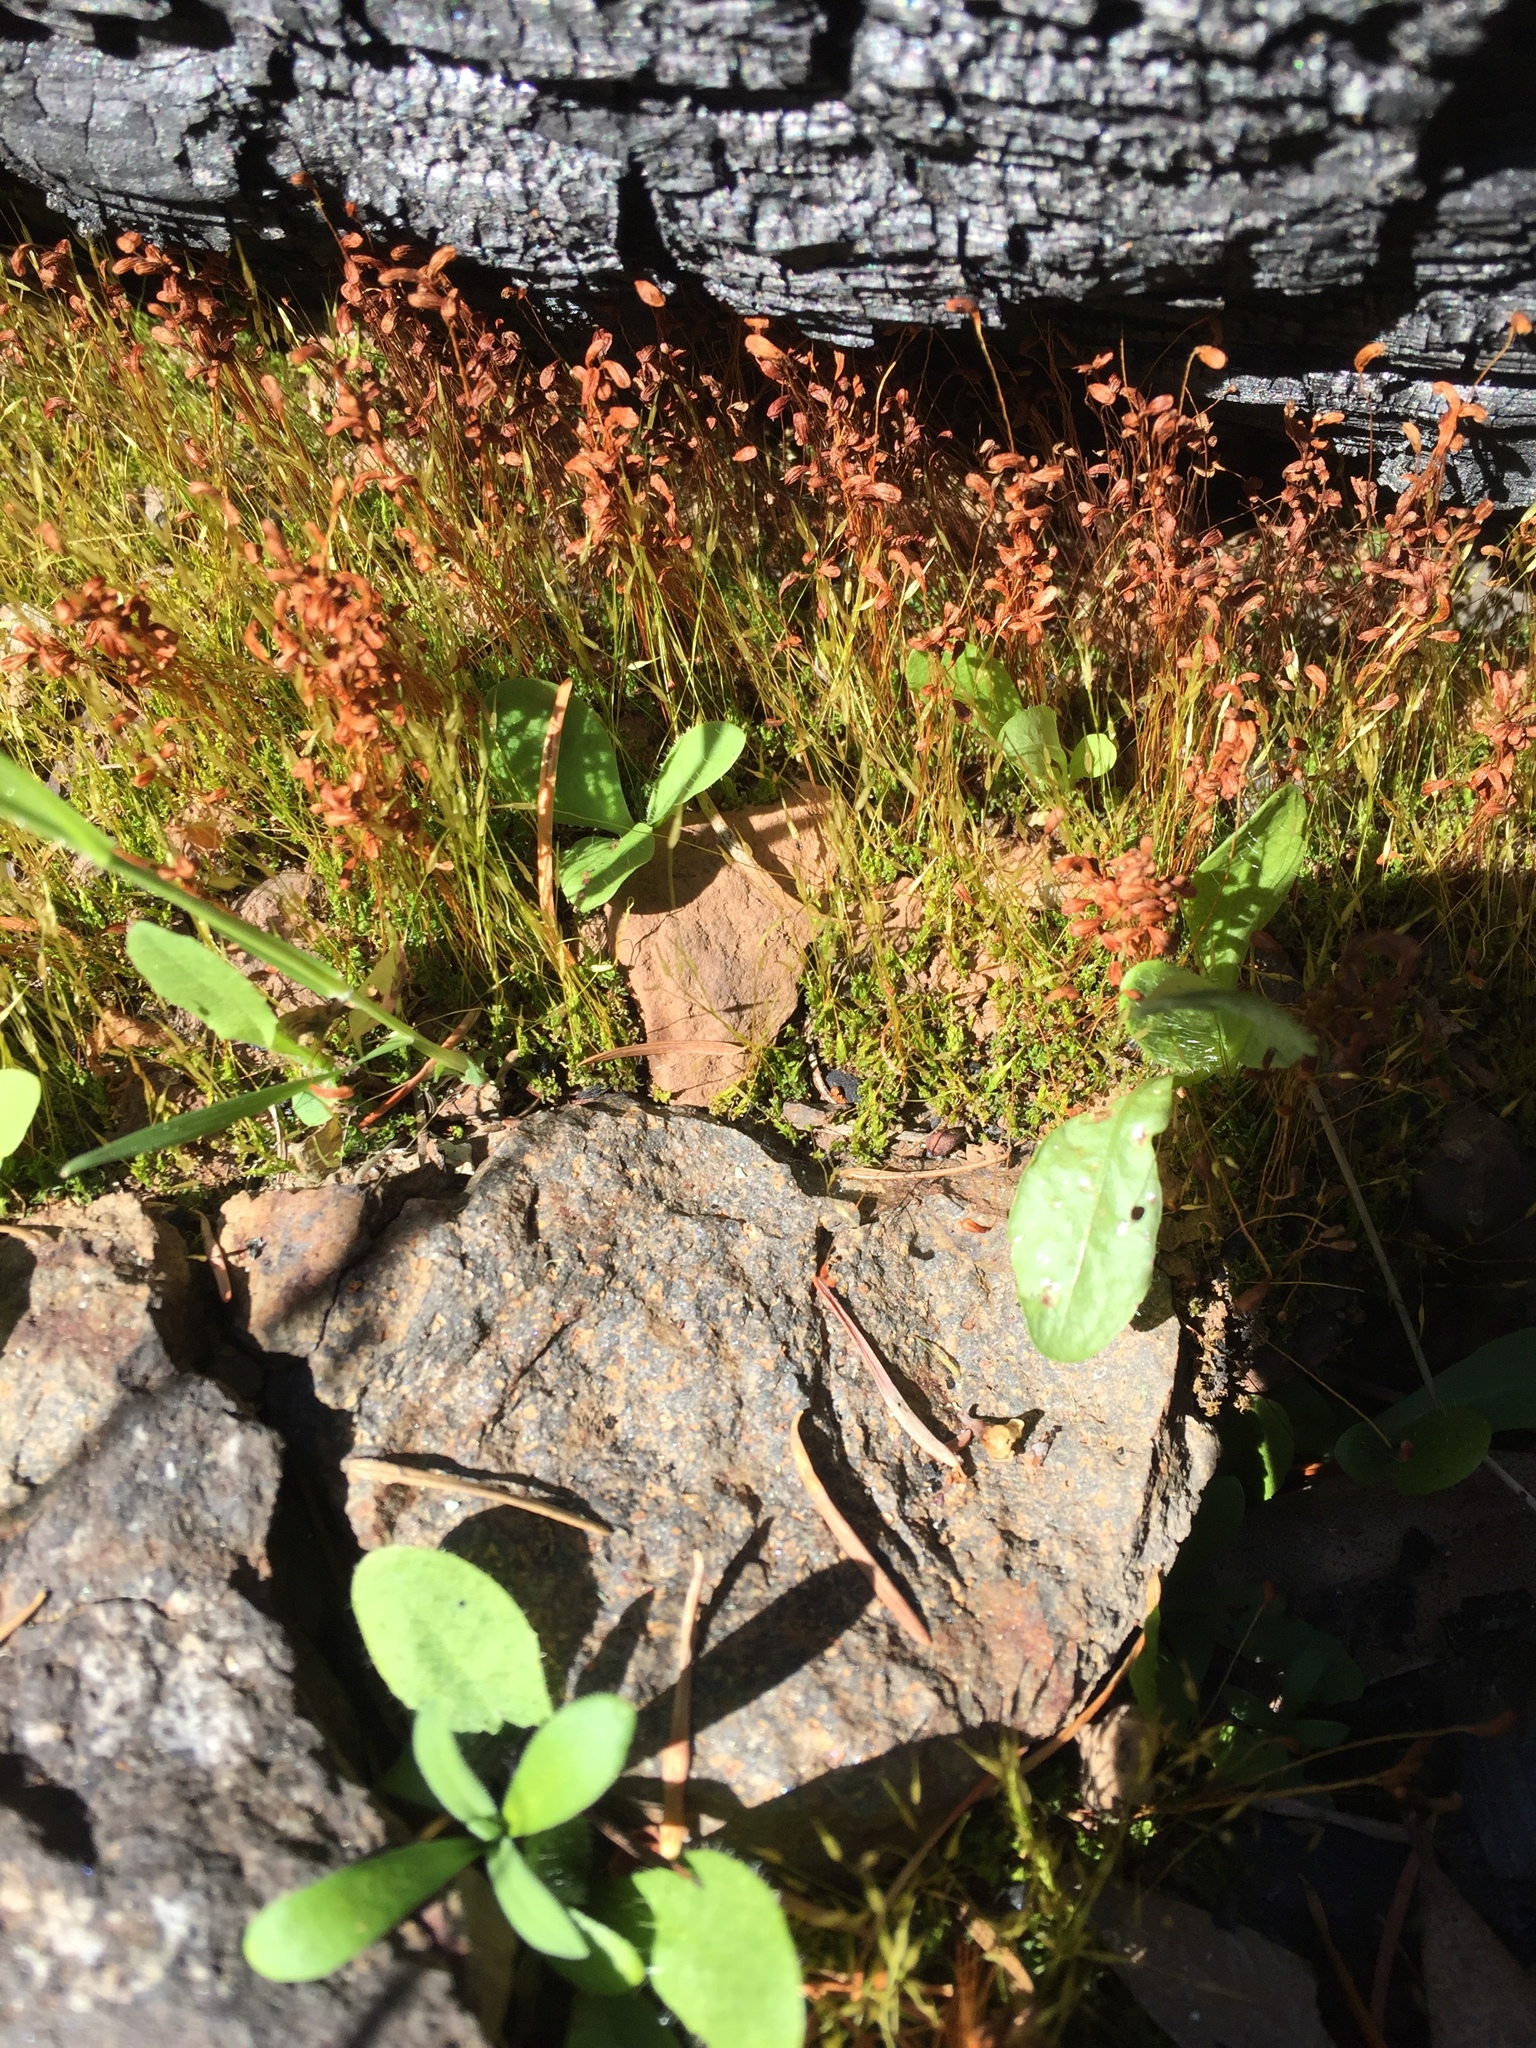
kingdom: Plantae
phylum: Bryophyta
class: Bryopsida
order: Funariales
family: Funariaceae
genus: Funaria
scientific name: Funaria hygrometrica
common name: Common cord moss
